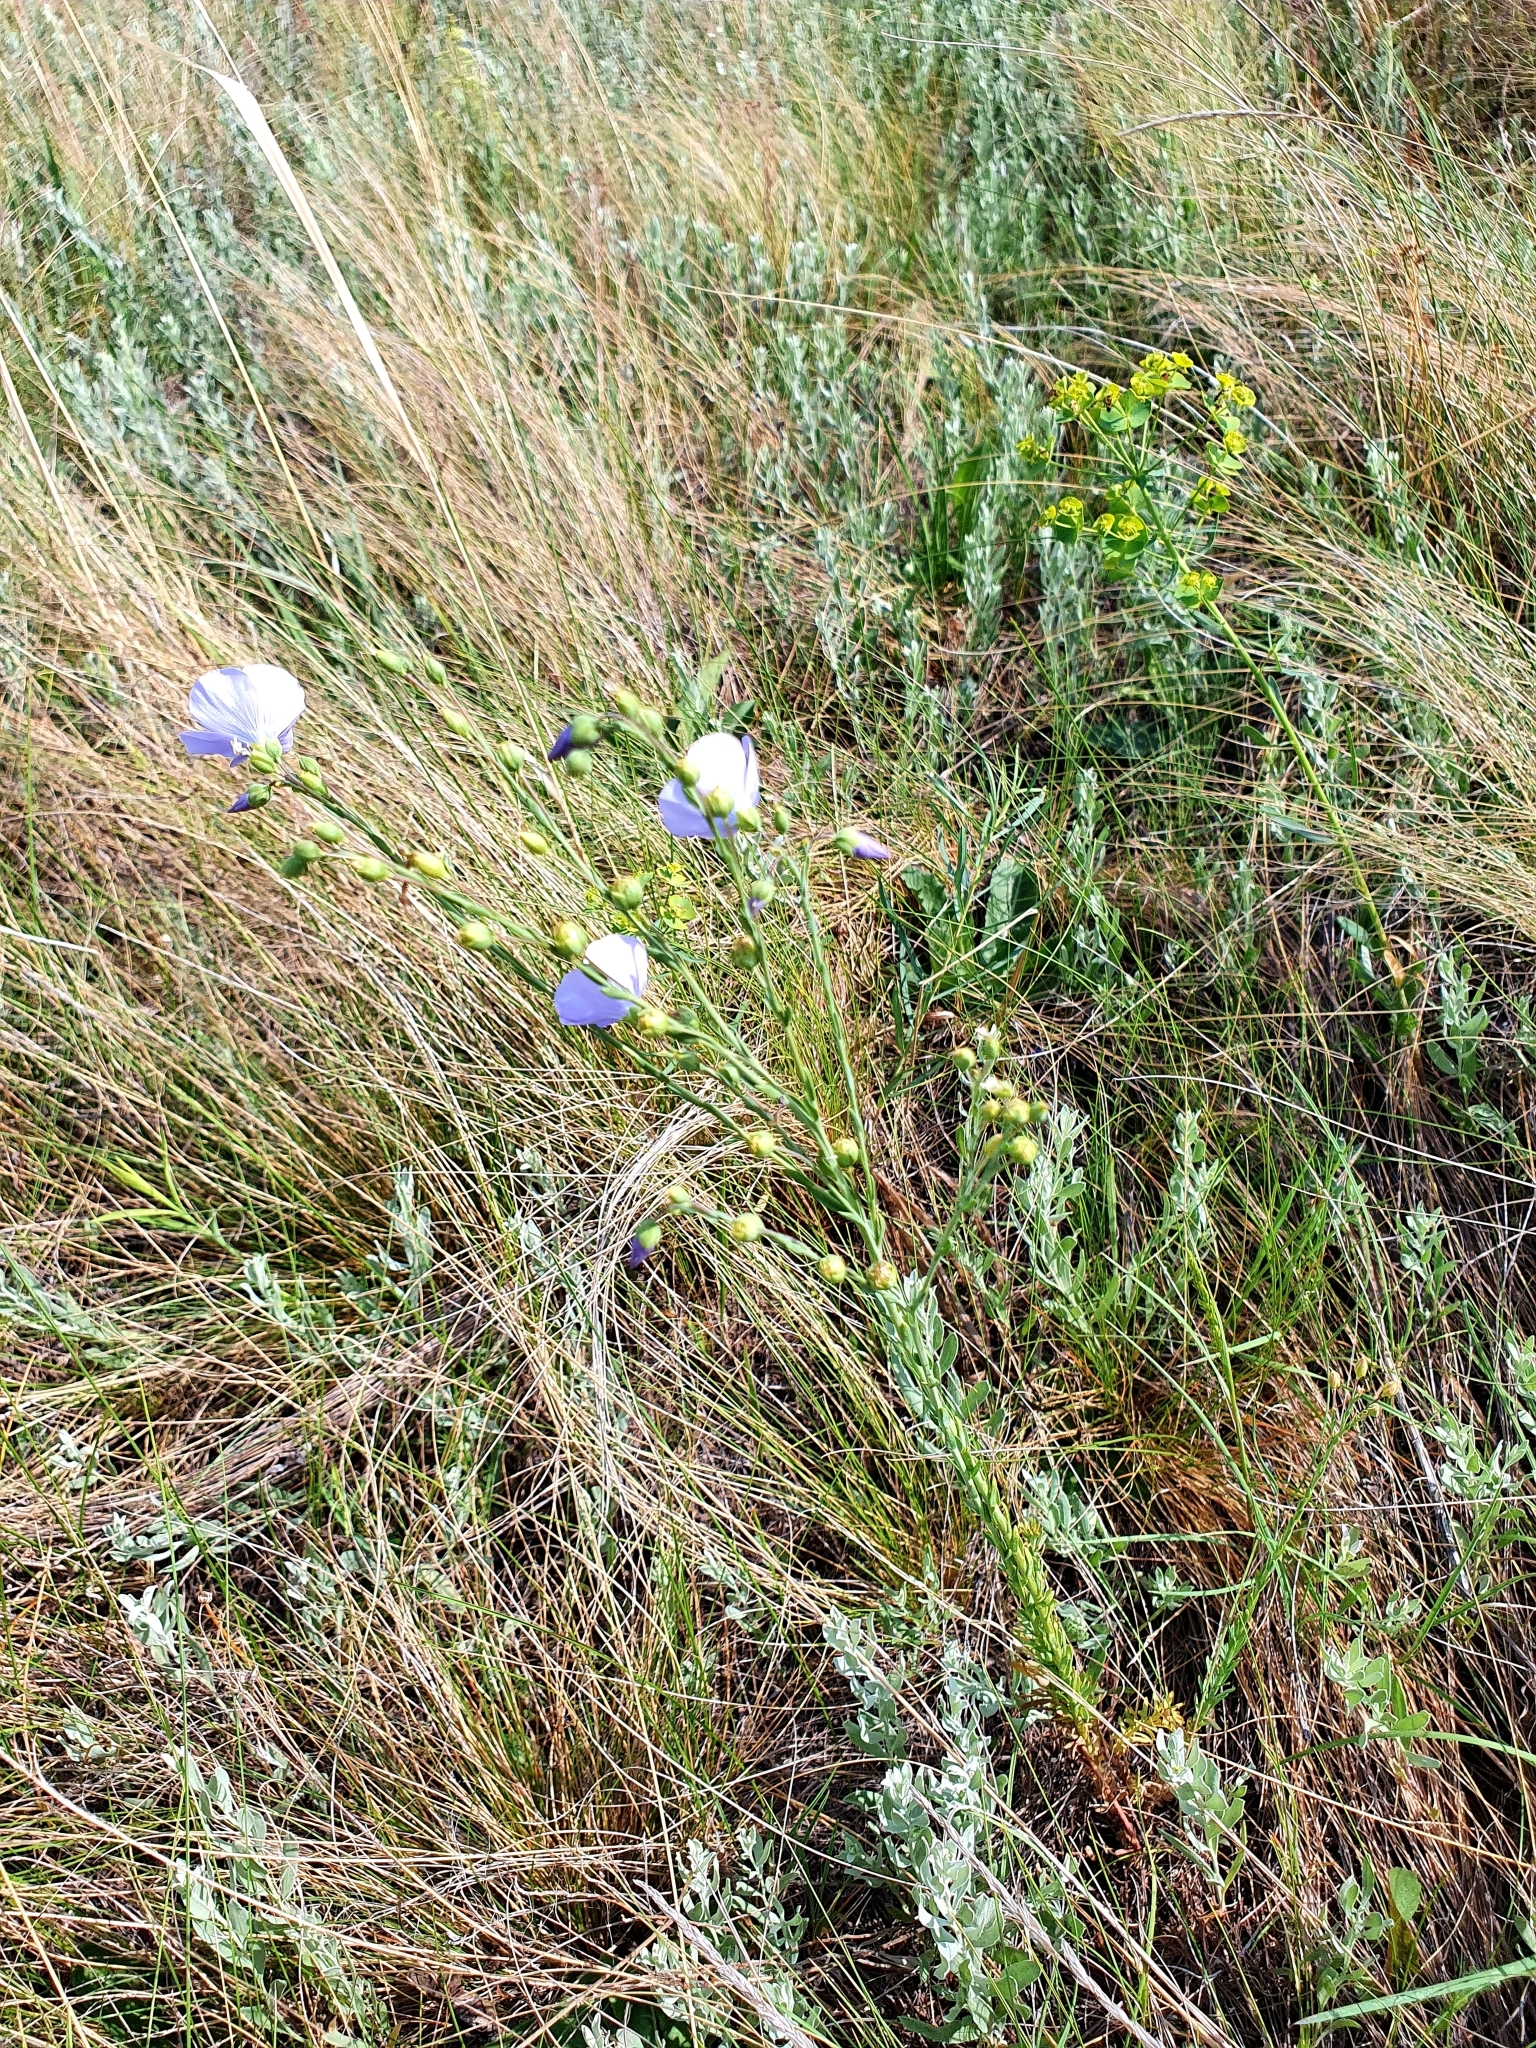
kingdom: Plantae
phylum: Tracheophyta
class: Magnoliopsida
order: Malpighiales
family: Linaceae
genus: Linum
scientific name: Linum perenne
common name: Blue flax
